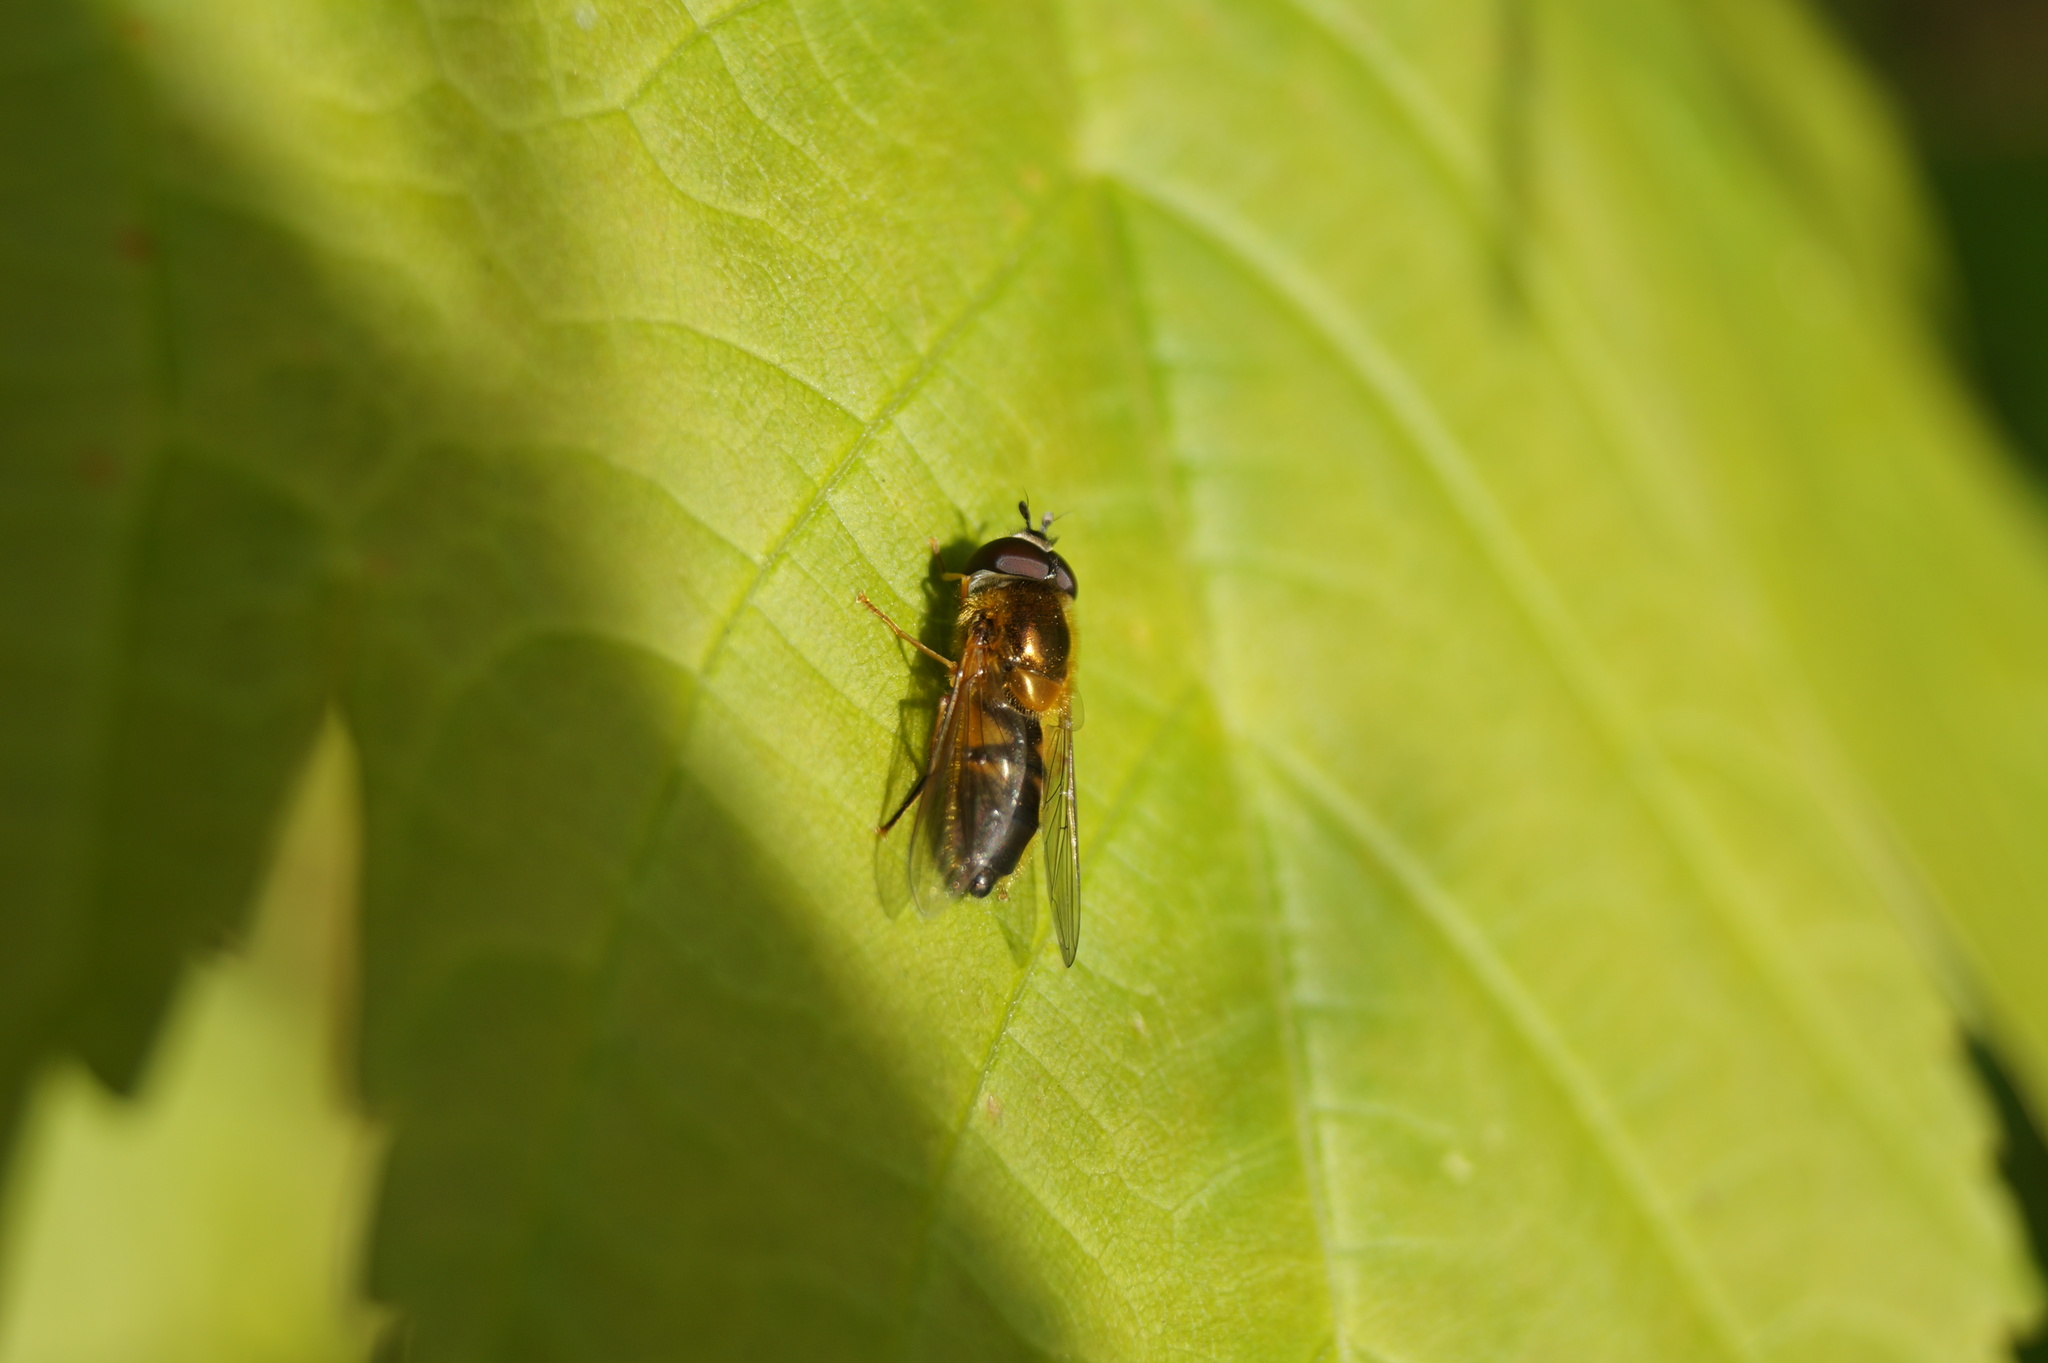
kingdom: Animalia
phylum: Arthropoda
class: Insecta
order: Diptera
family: Syrphidae
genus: Epistrophe
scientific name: Epistrophe eligans
